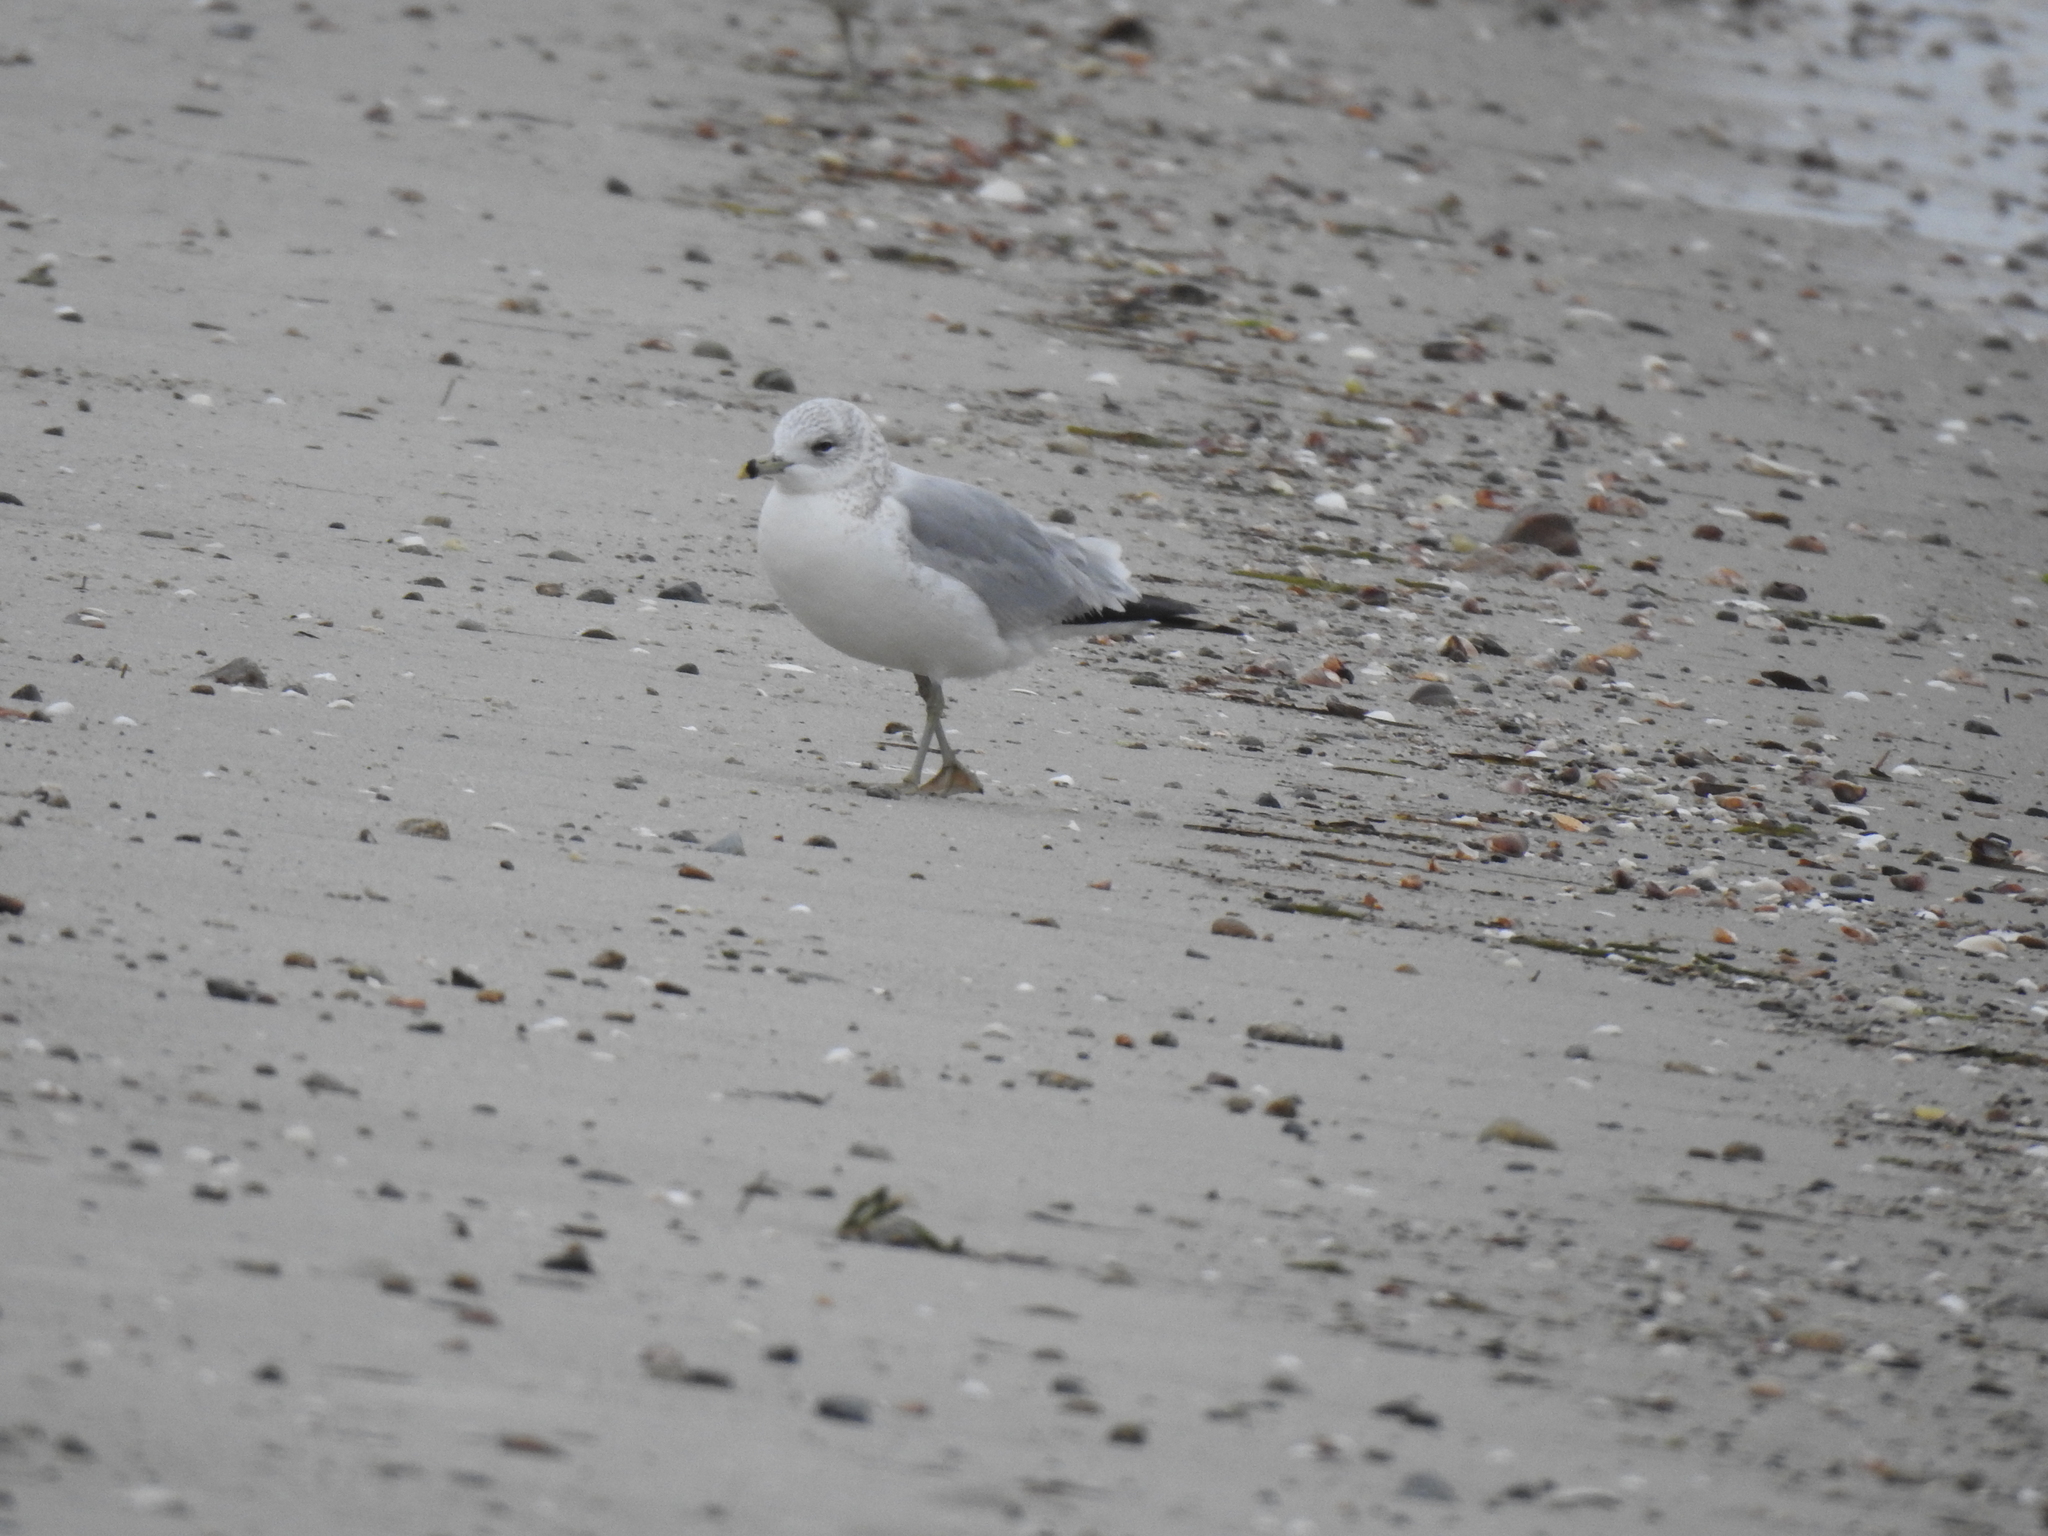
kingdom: Animalia
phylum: Chordata
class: Aves
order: Charadriiformes
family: Laridae
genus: Larus
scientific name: Larus delawarensis
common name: Ring-billed gull
